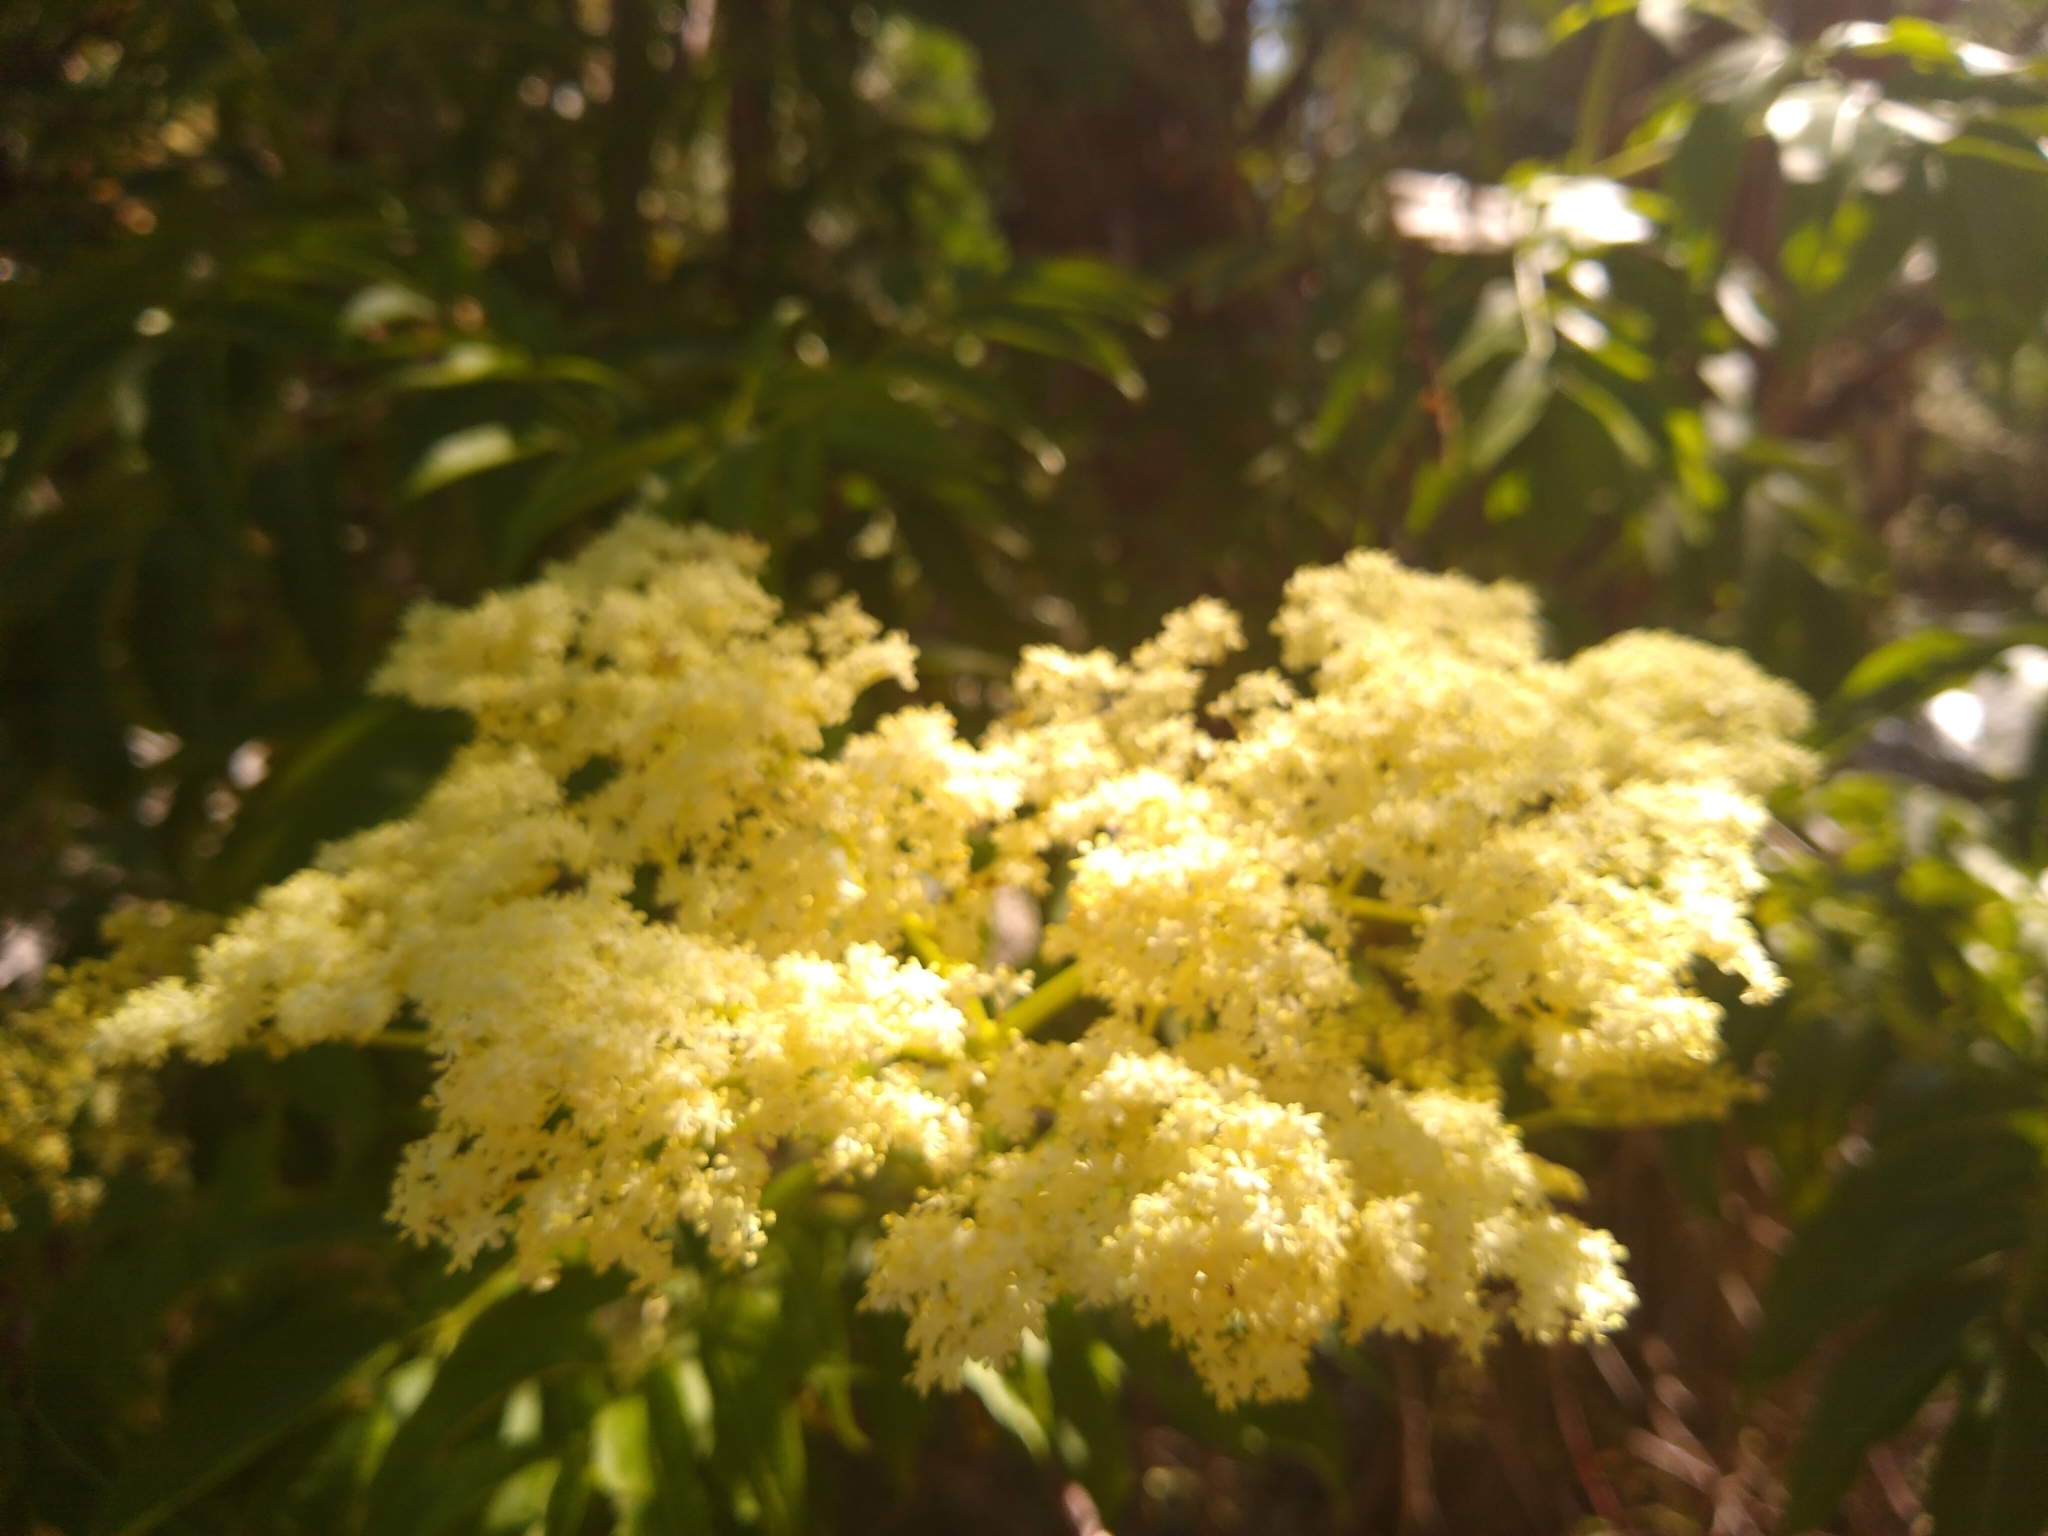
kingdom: Plantae
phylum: Tracheophyta
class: Magnoliopsida
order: Dipsacales
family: Viburnaceae
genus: Sambucus
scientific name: Sambucus cerulea
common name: Blue elder
